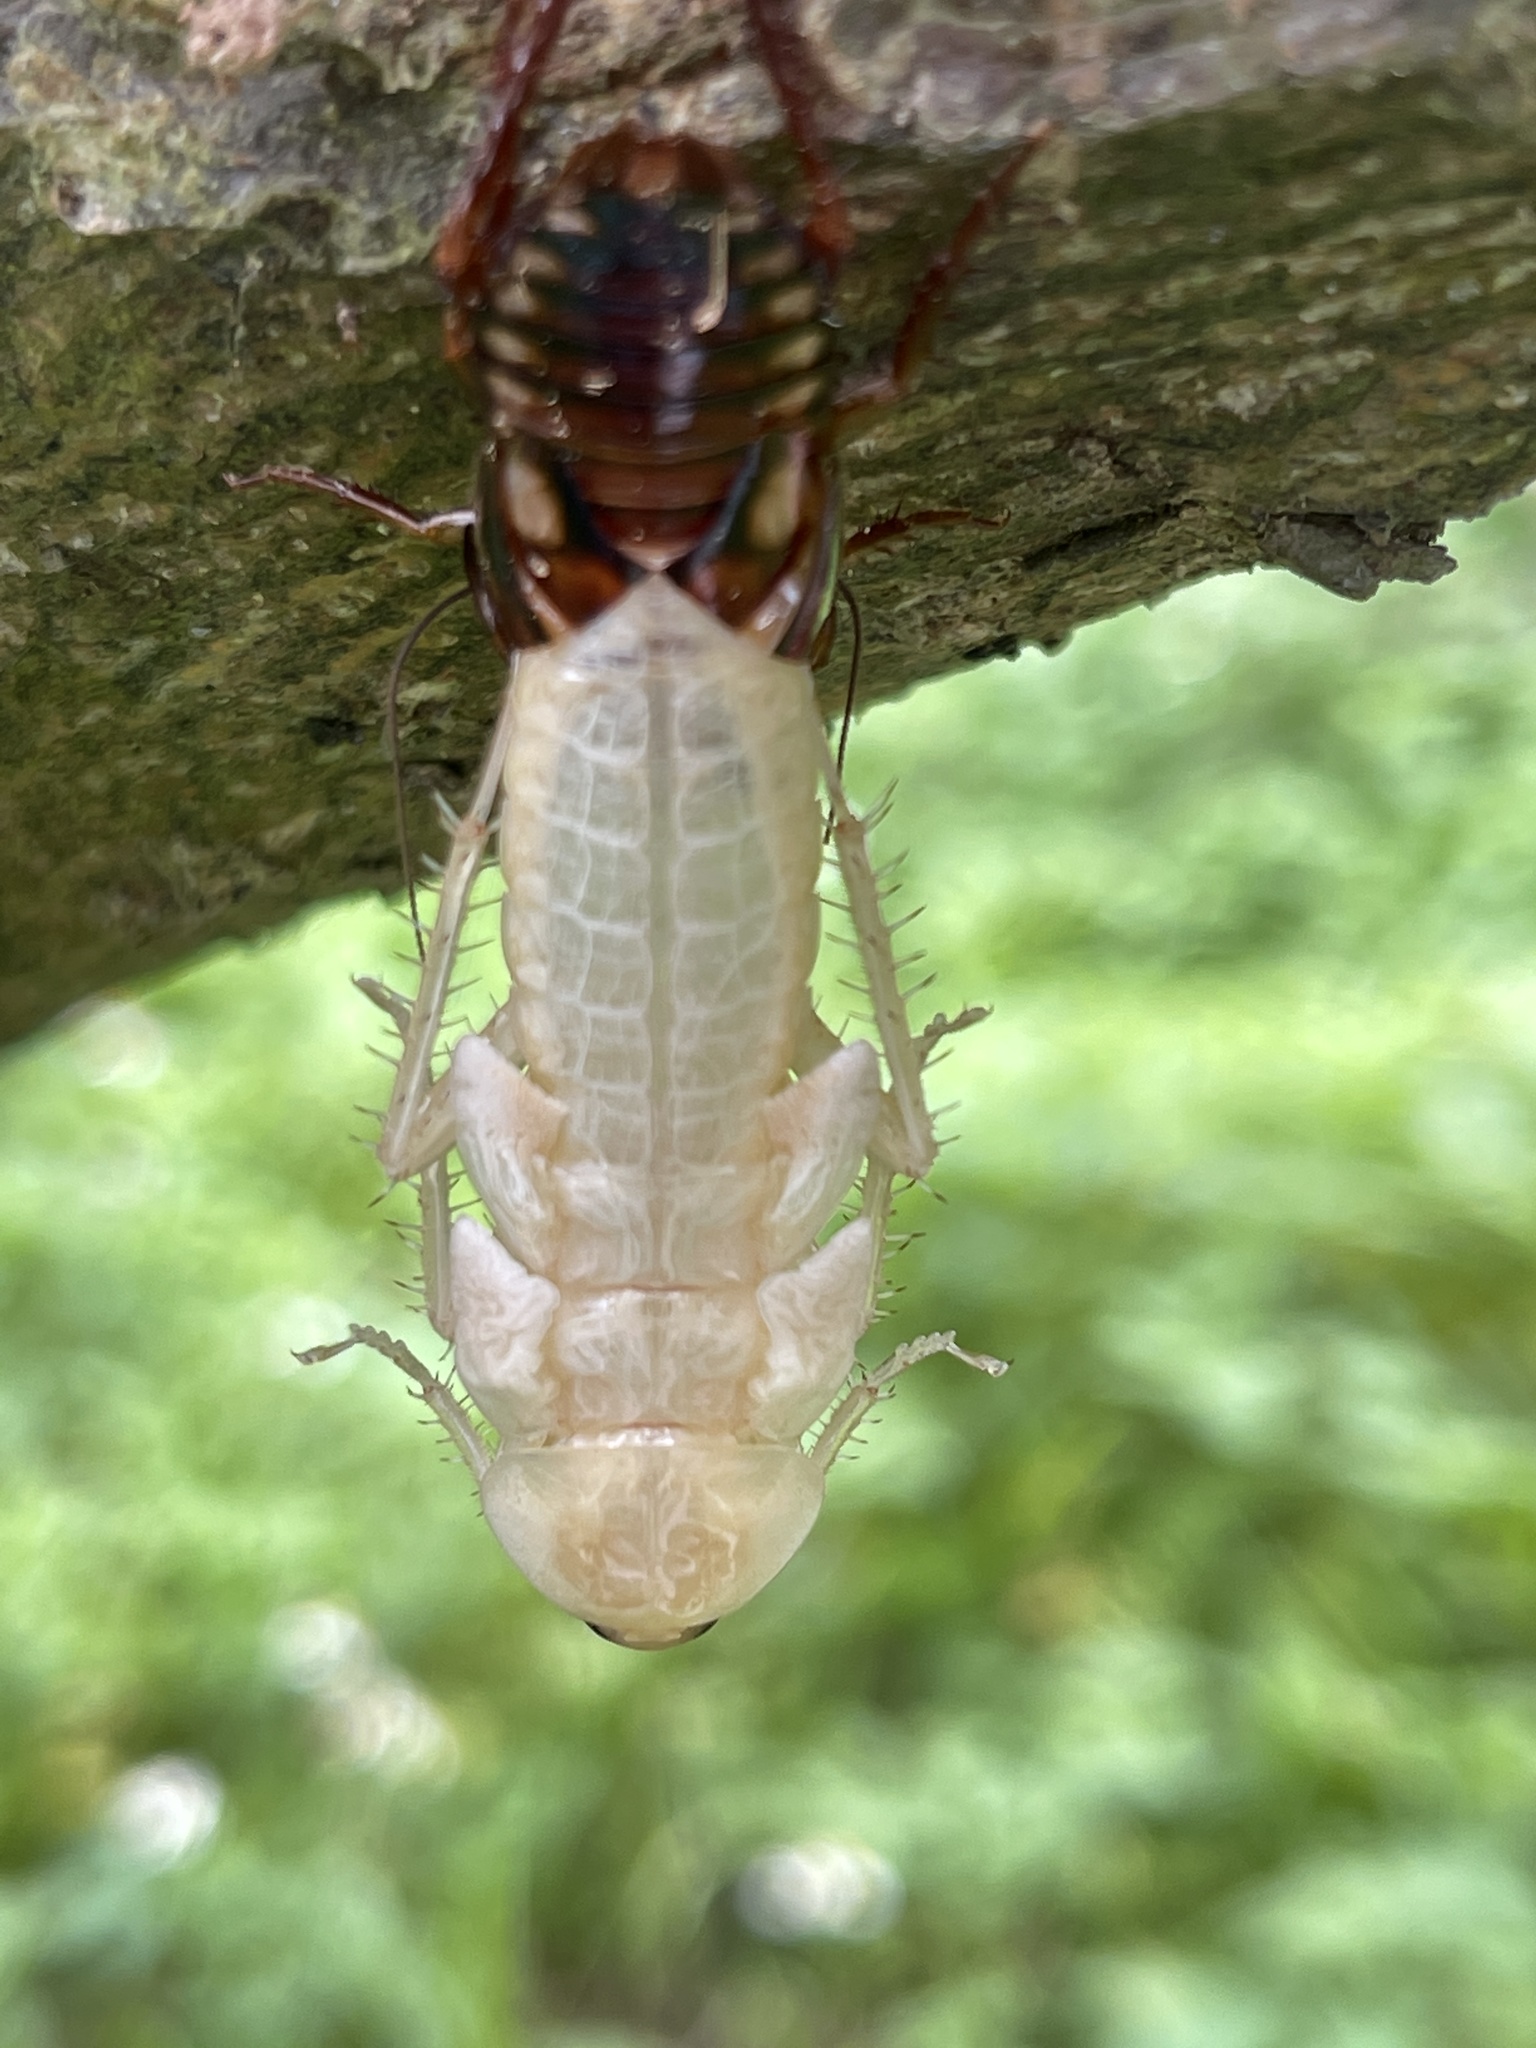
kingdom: Animalia
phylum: Arthropoda
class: Insecta
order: Blattodea
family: Blattidae
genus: Periplaneta
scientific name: Periplaneta australasiae
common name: Australian cockroach
